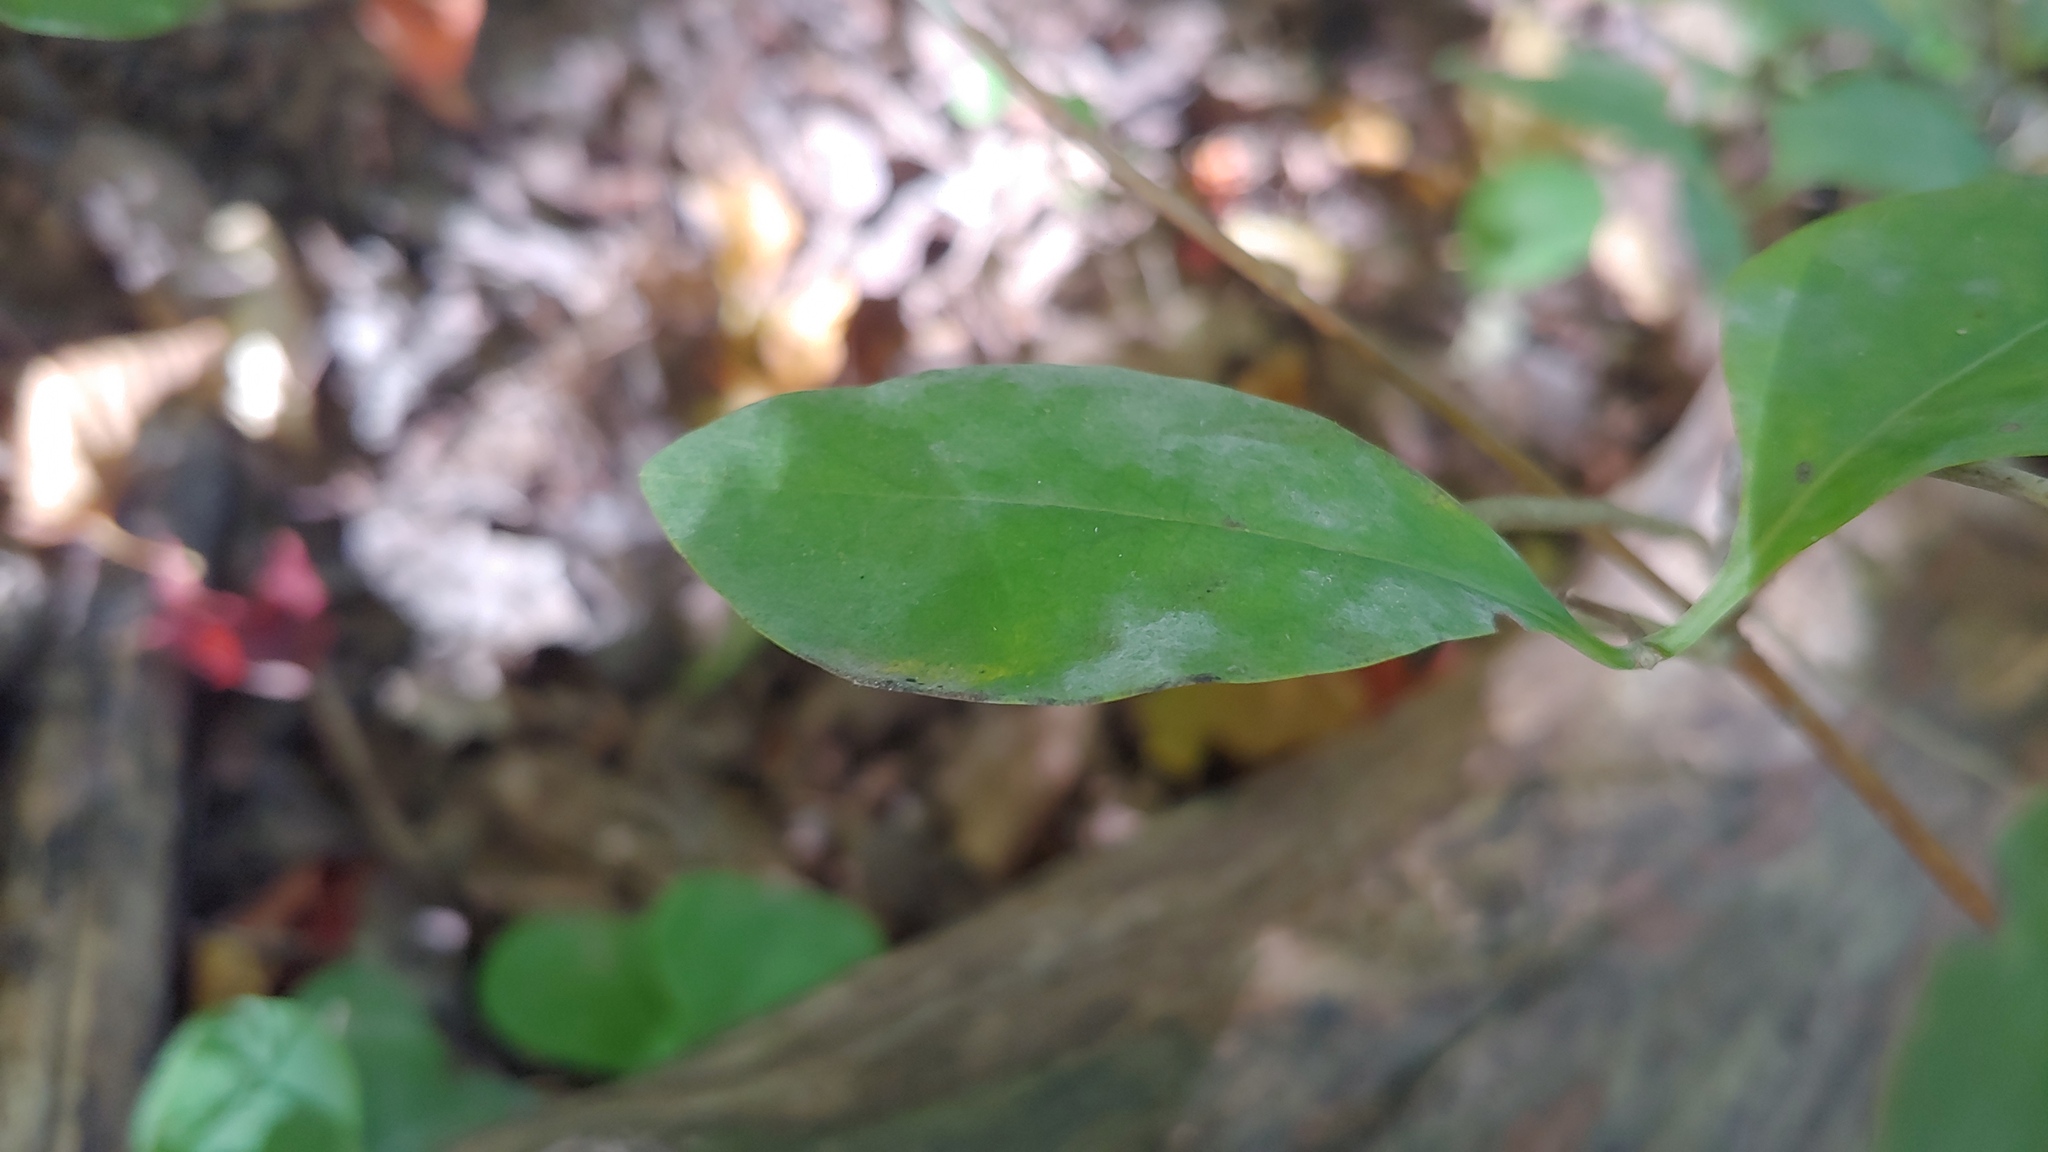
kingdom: Fungi
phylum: Ascomycota
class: Leotiomycetes
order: Helotiales
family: Erysiphaceae
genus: Erysiphe
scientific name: Erysiphe lonicerae
